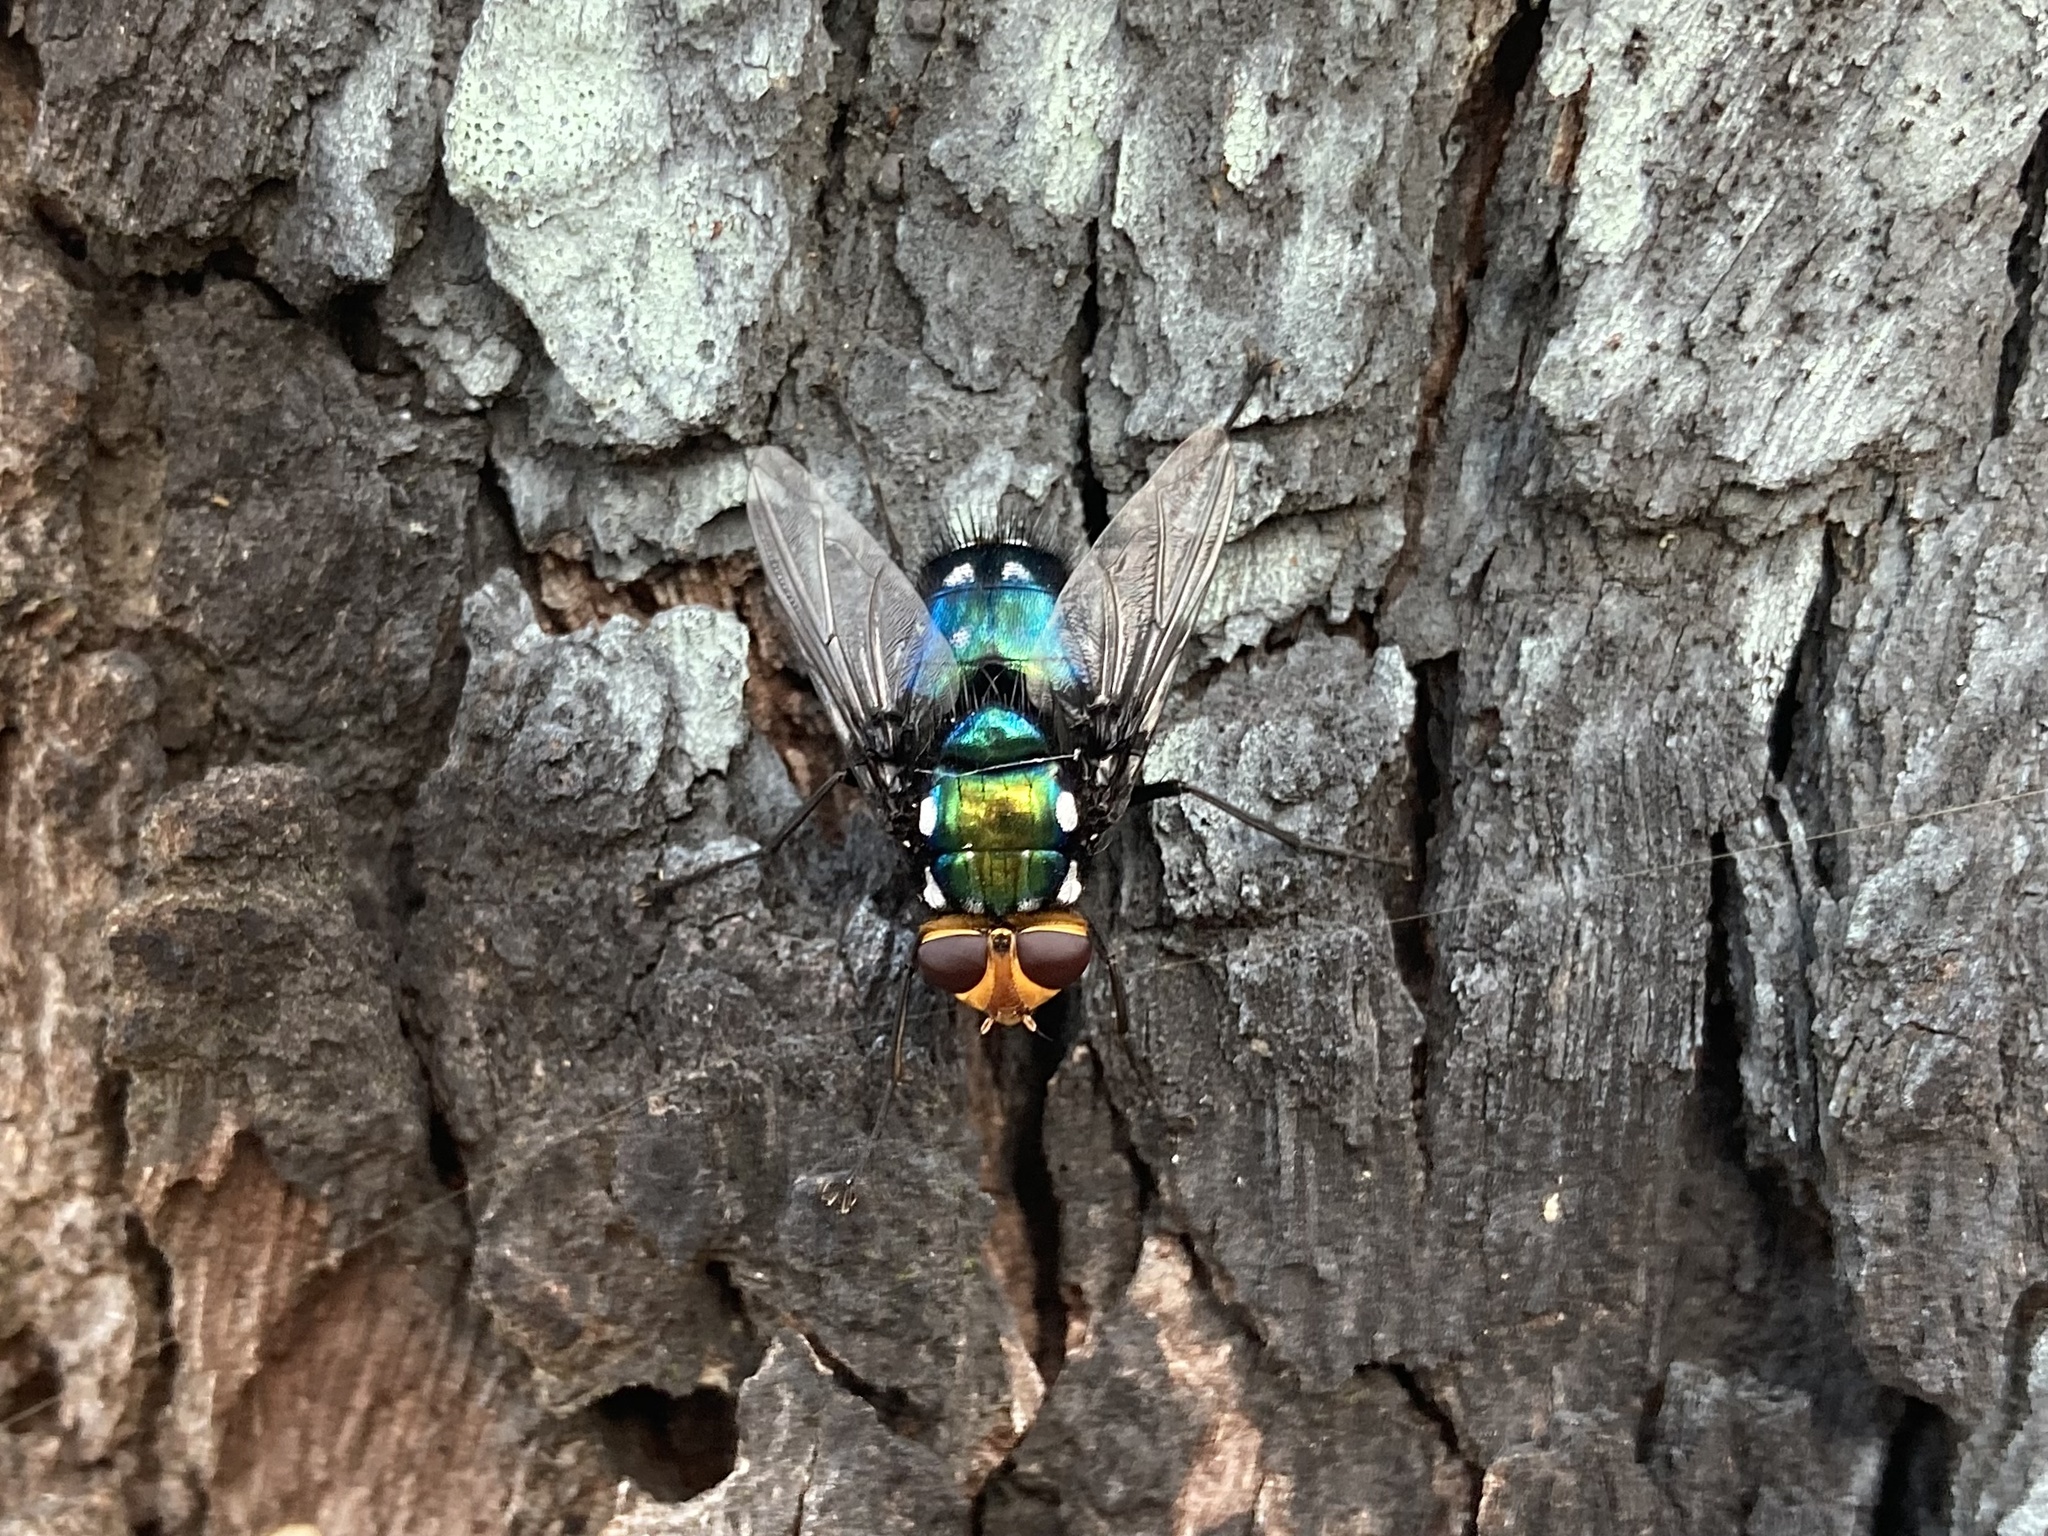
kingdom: Animalia
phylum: Arthropoda
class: Insecta
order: Diptera
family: Tachinidae
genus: Rutilia
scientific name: Rutilia argentifera
